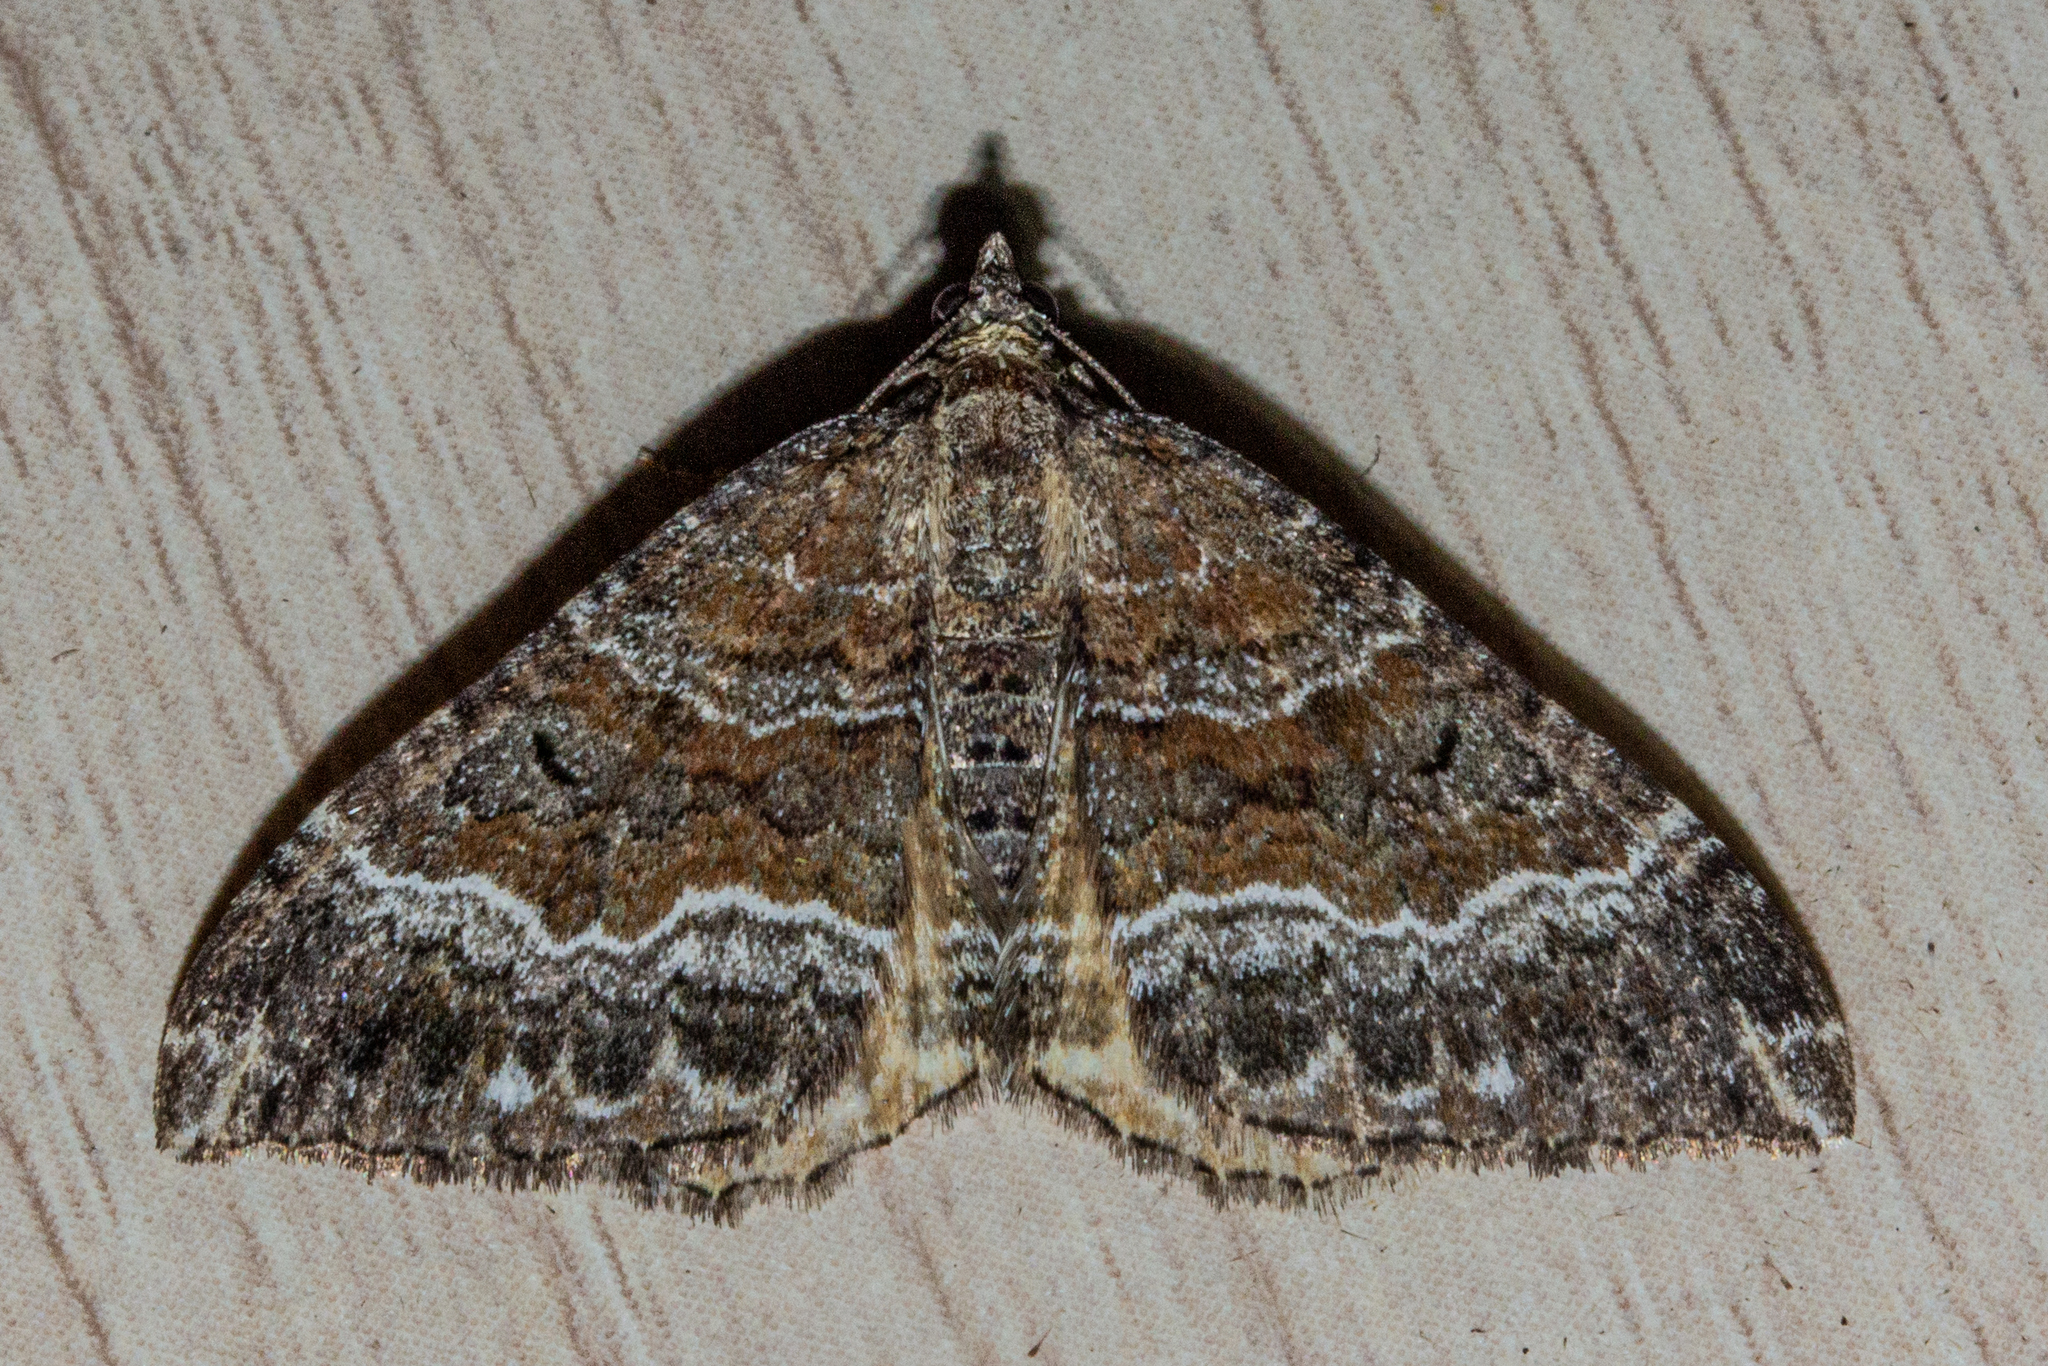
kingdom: Animalia
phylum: Arthropoda
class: Insecta
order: Lepidoptera
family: Geometridae
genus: Hydriomena
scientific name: Hydriomena deltoidata
